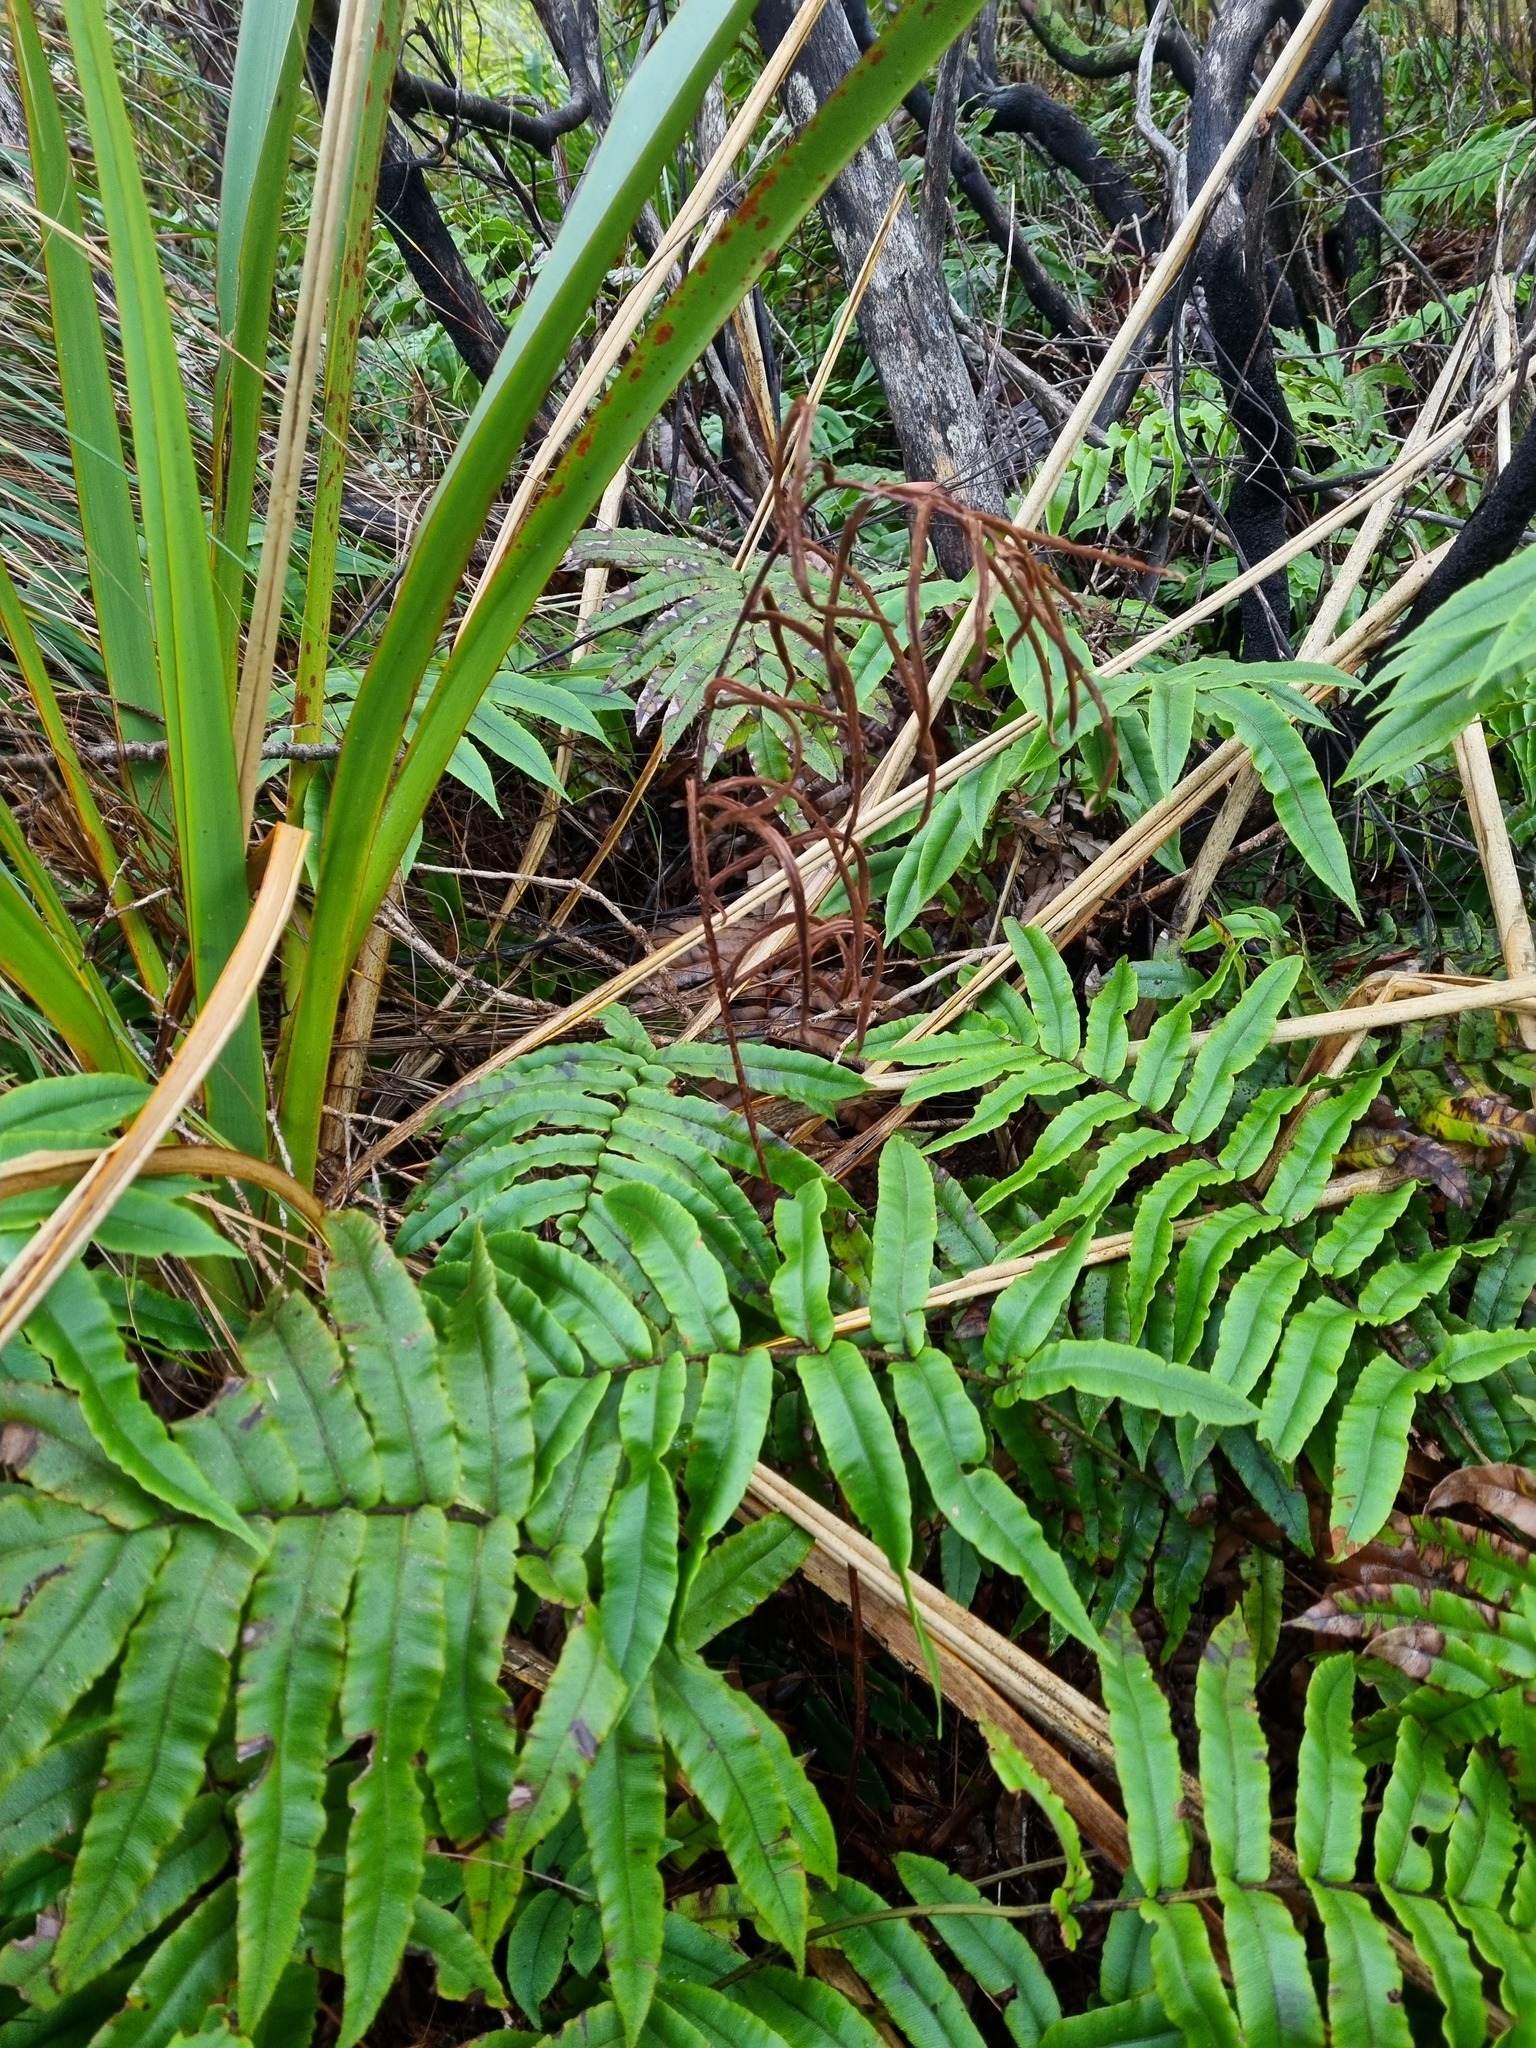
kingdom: Plantae
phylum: Tracheophyta
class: Polypodiopsida
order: Polypodiales
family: Blechnaceae
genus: Parablechnum
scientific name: Parablechnum procerum
